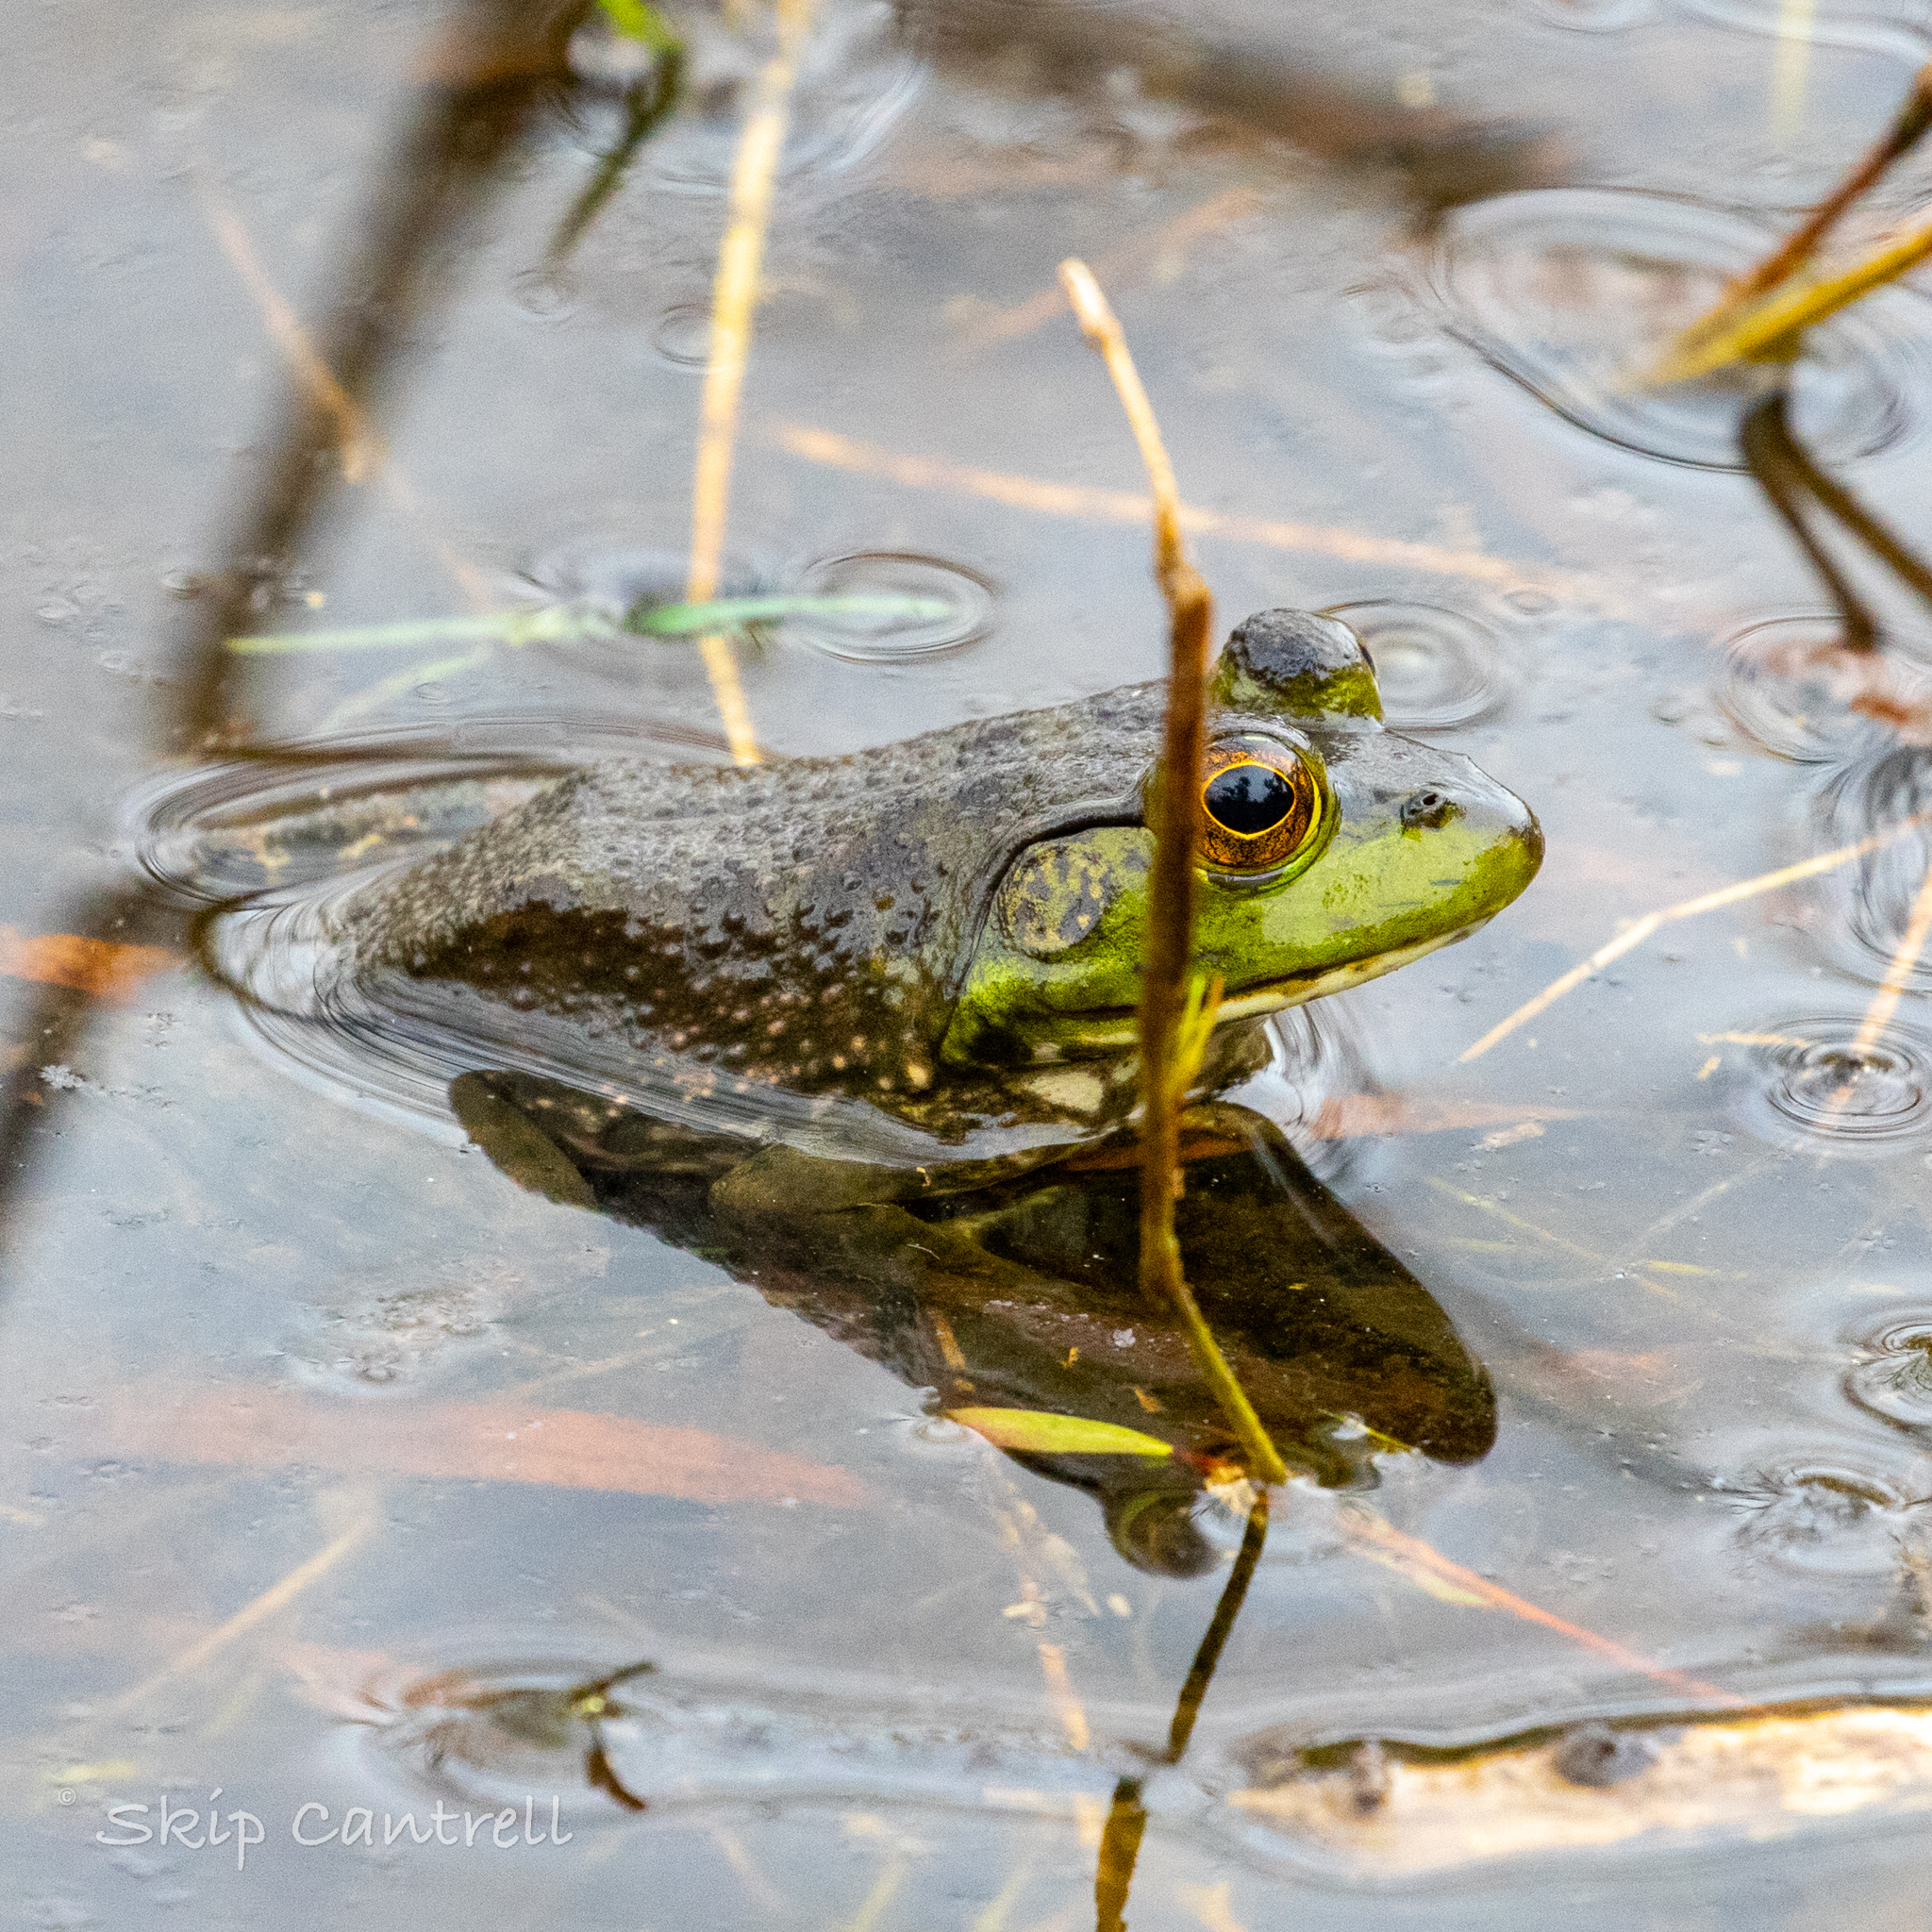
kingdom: Animalia
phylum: Chordata
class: Amphibia
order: Anura
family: Ranidae
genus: Lithobates
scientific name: Lithobates catesbeianus
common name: American bullfrog
